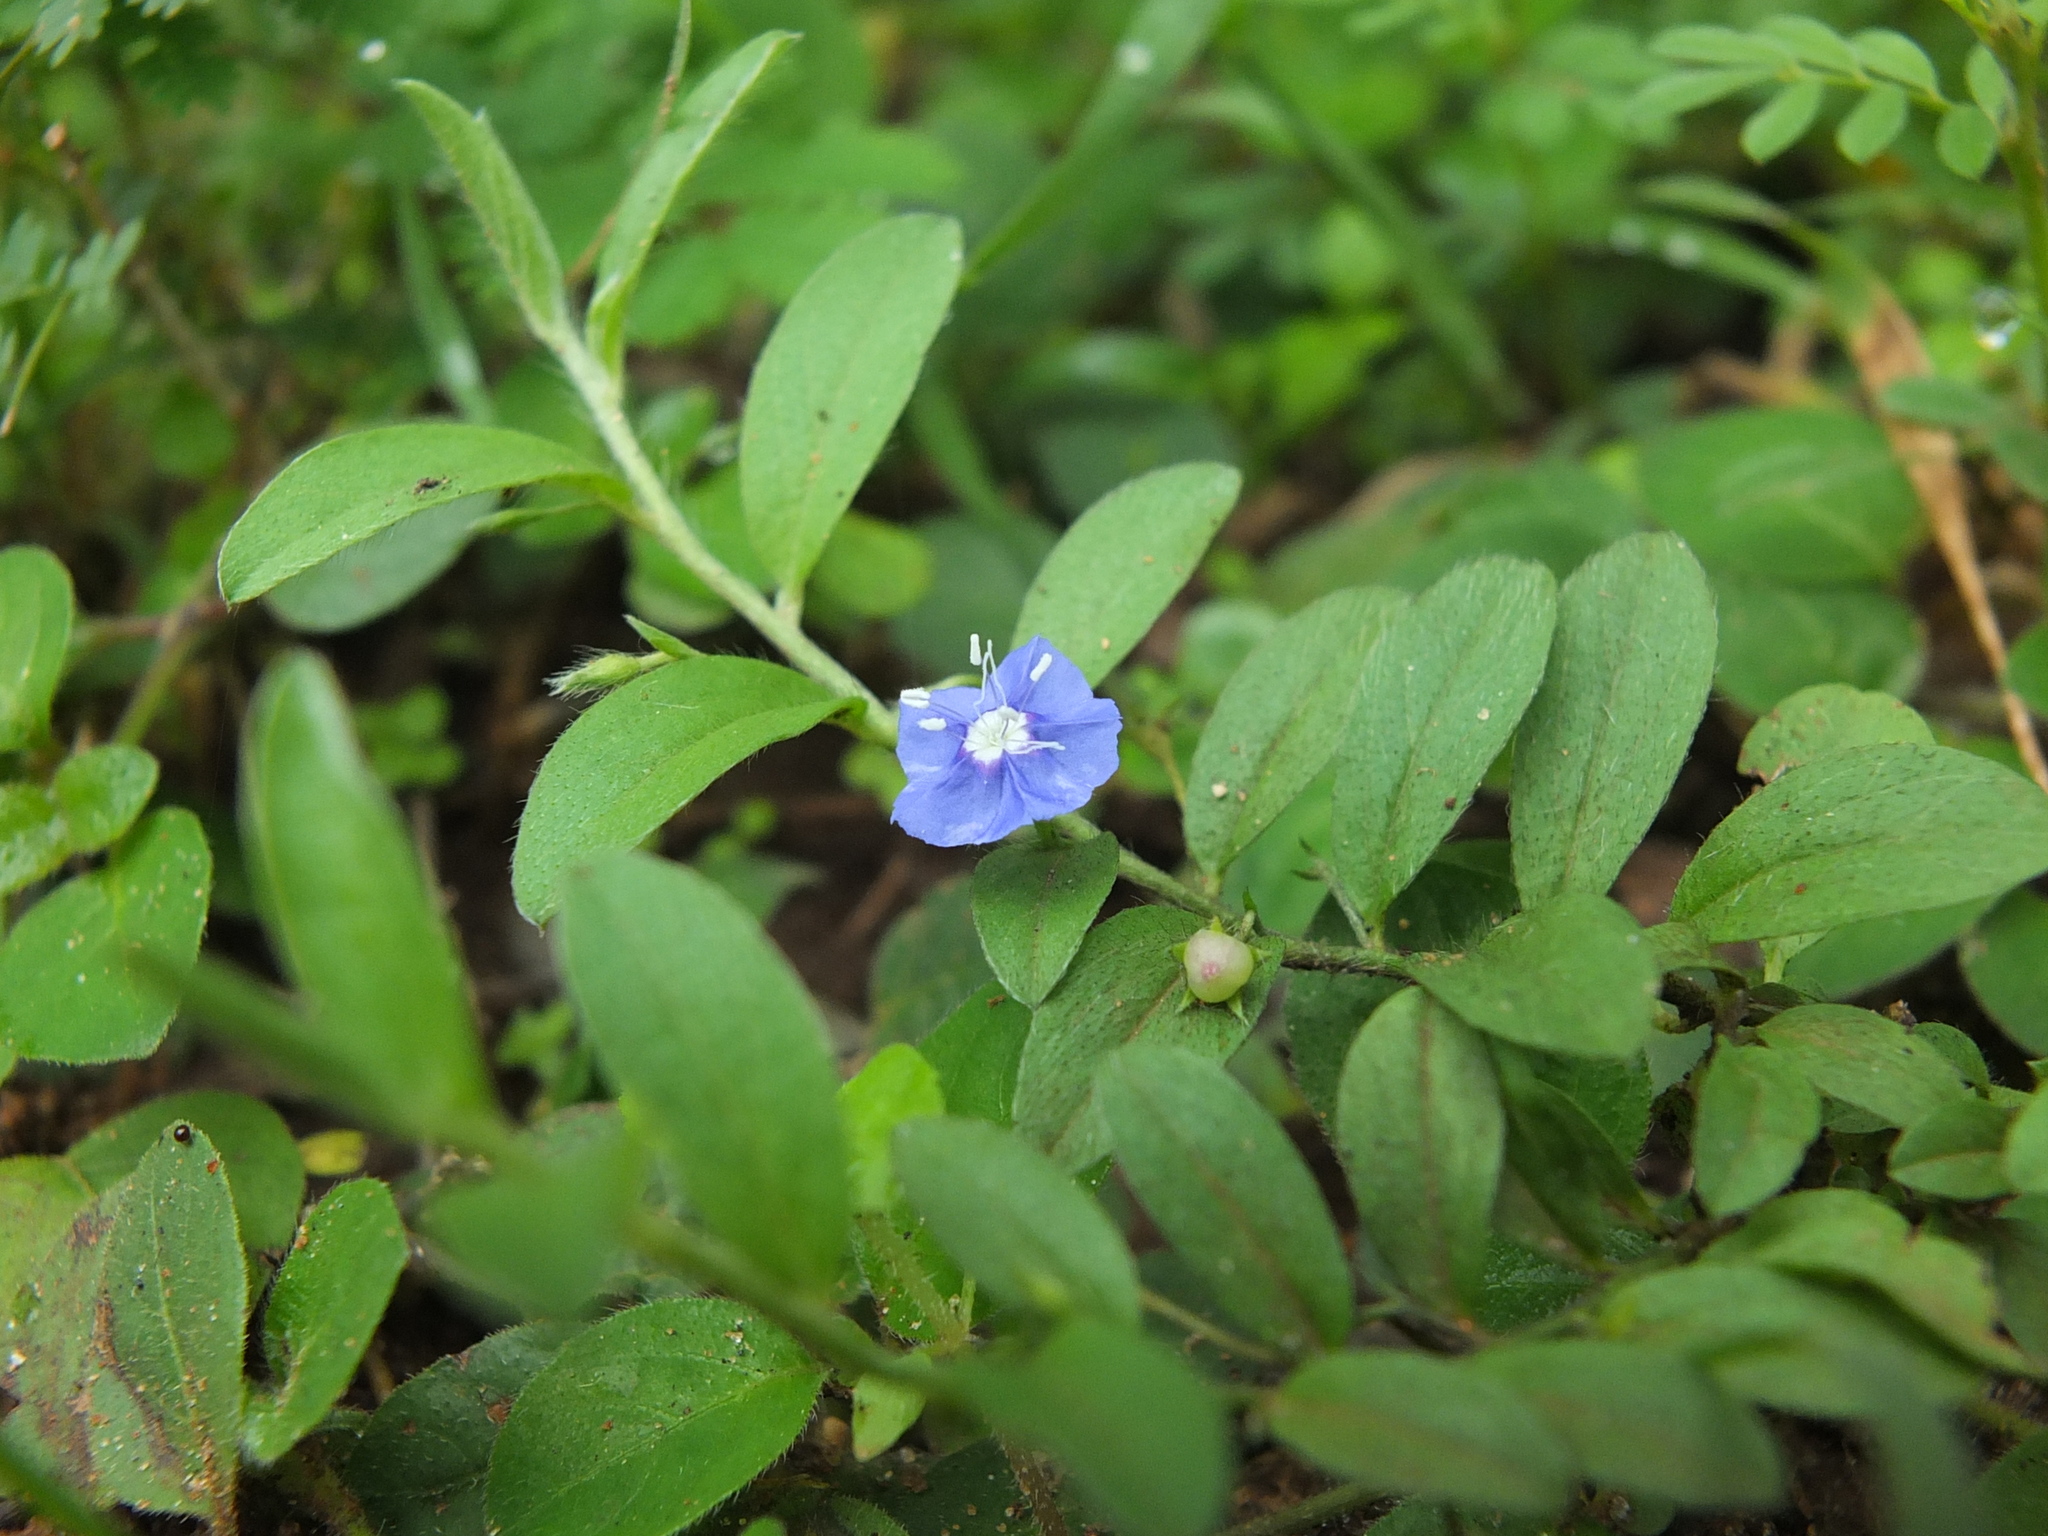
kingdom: Plantae
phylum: Tracheophyta
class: Magnoliopsida
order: Solanales
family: Convolvulaceae
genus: Evolvulus
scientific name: Evolvulus alsinoides
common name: Slender dwarf morning-glory
